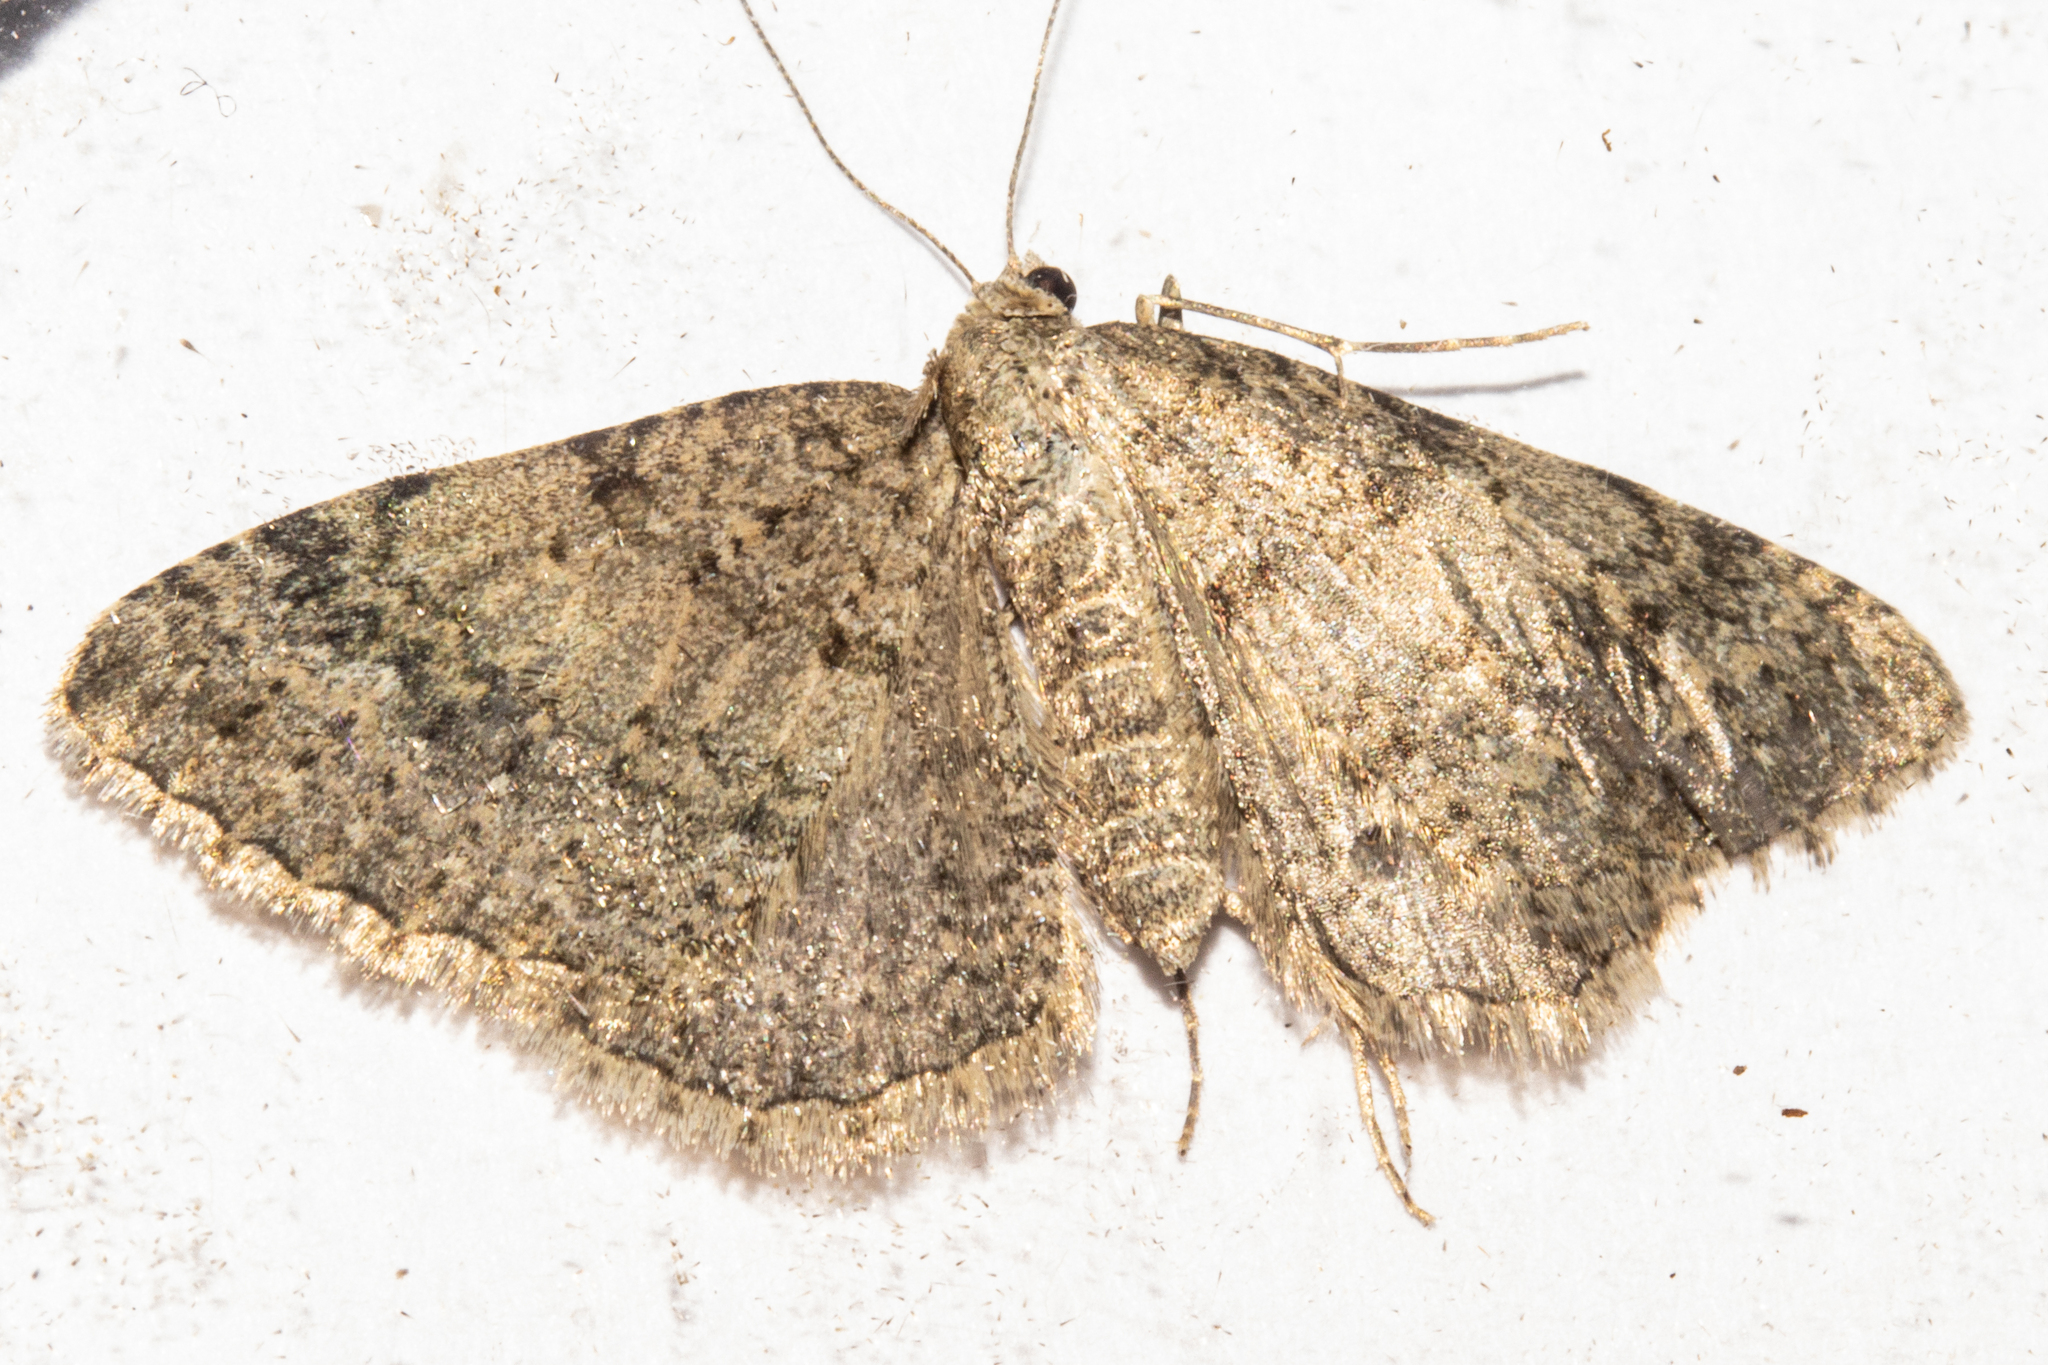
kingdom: Animalia
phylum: Arthropoda
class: Insecta
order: Lepidoptera
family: Geometridae
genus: Helastia
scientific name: Helastia corcularia
